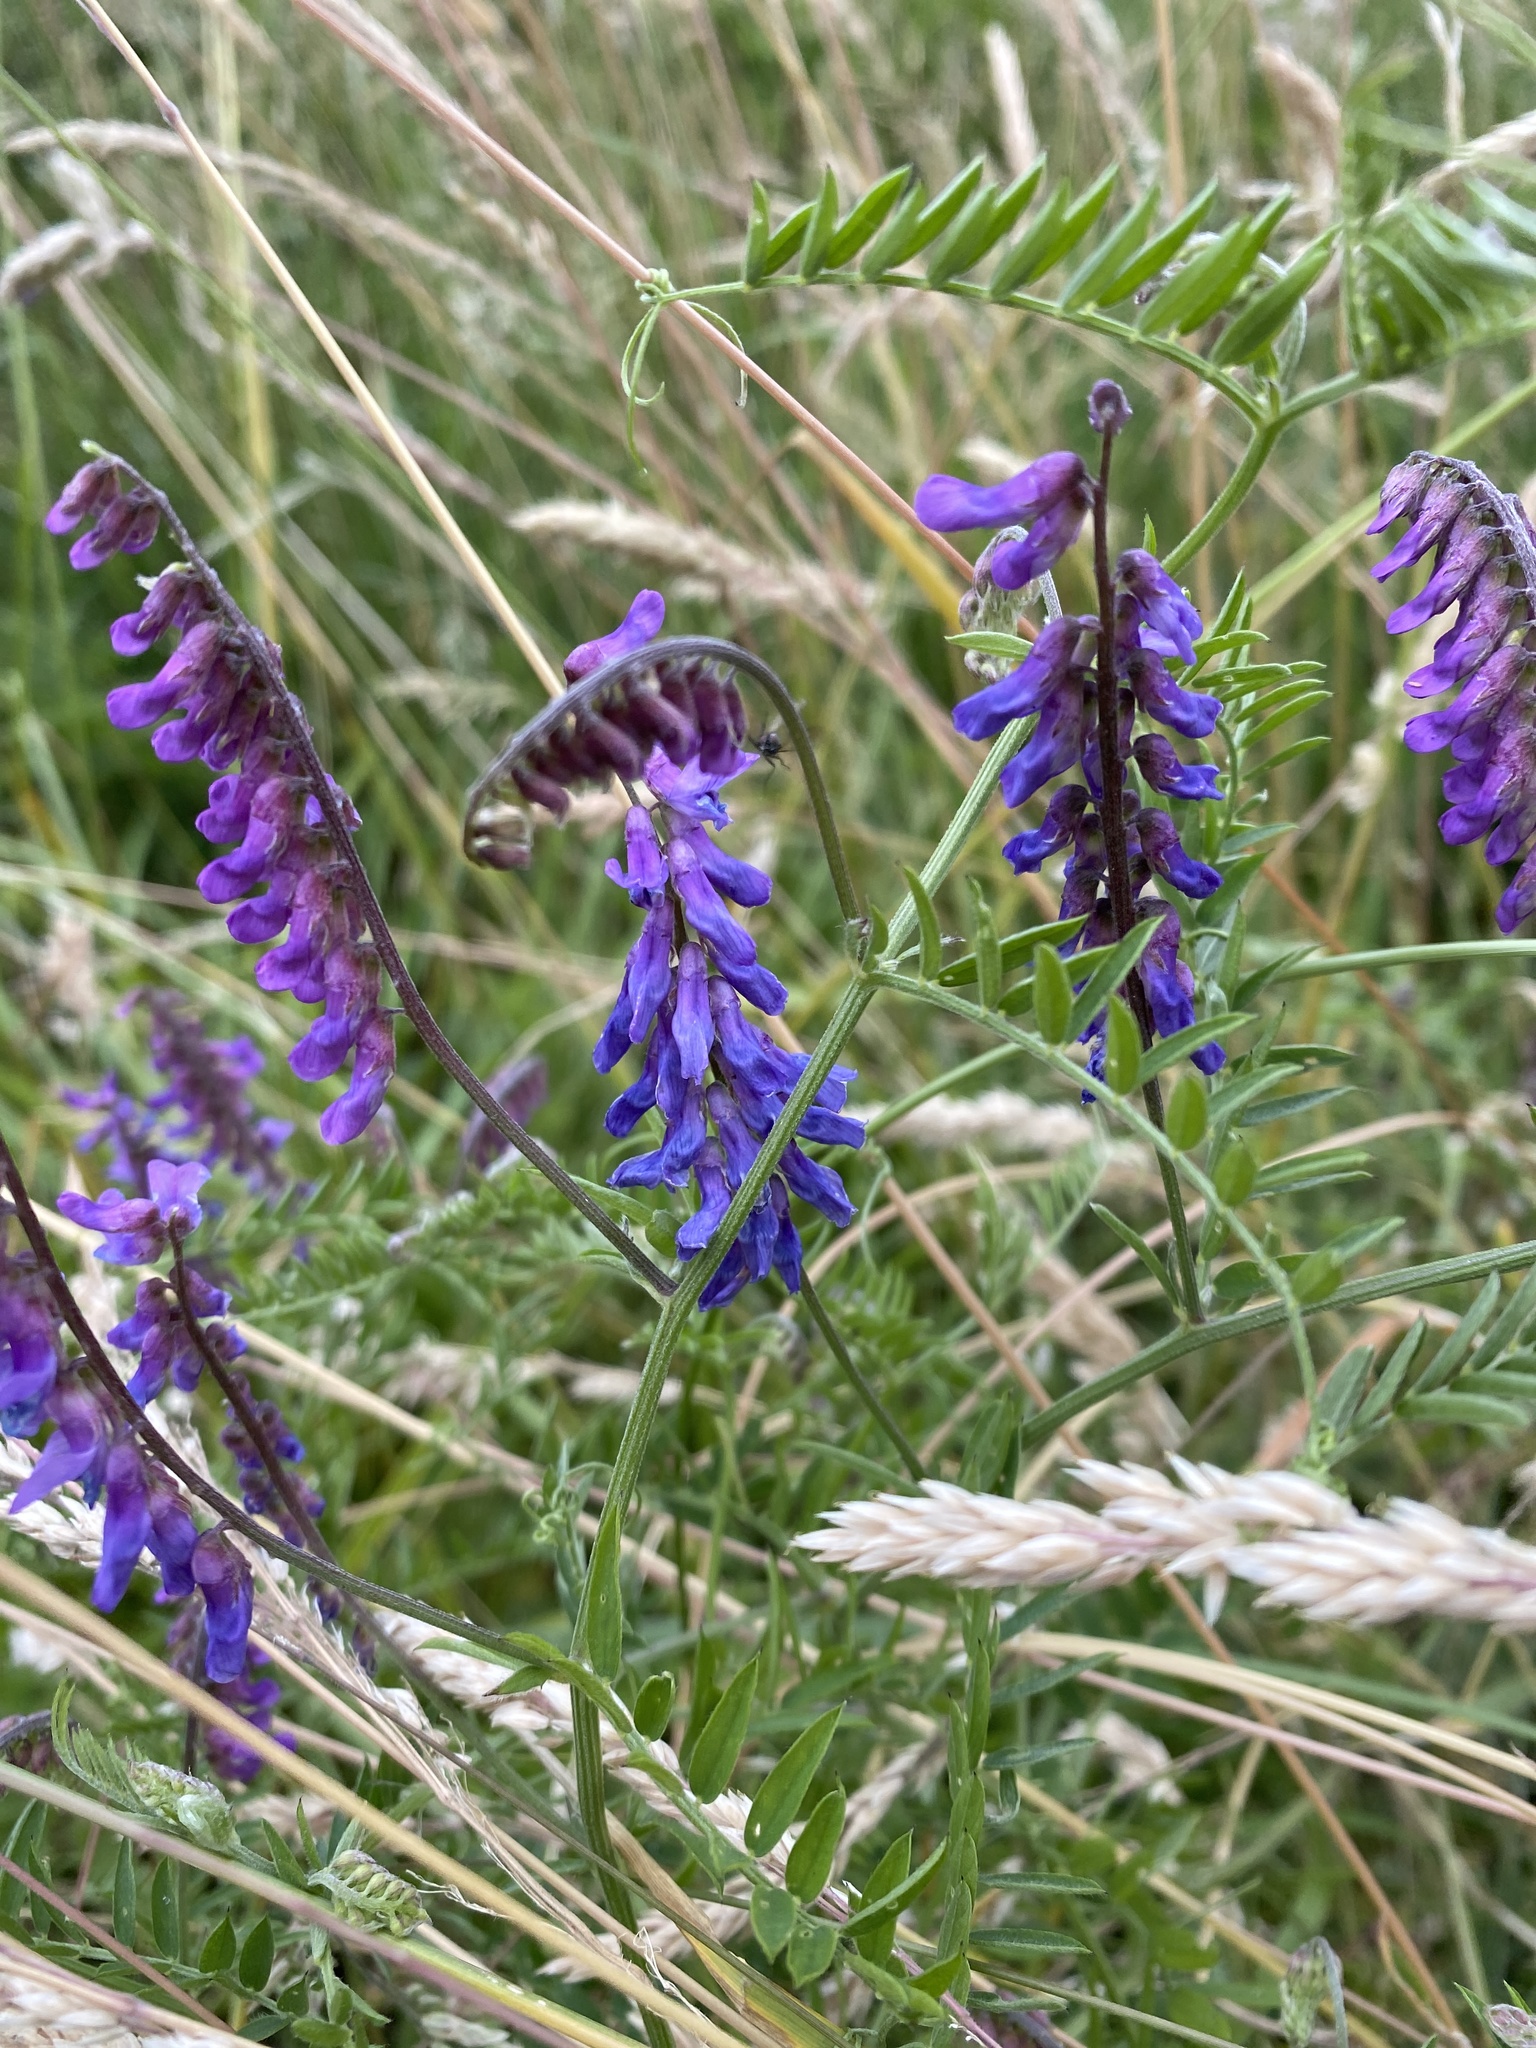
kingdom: Plantae
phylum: Tracheophyta
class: Magnoliopsida
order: Fabales
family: Fabaceae
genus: Vicia
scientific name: Vicia cracca
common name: Bird vetch
